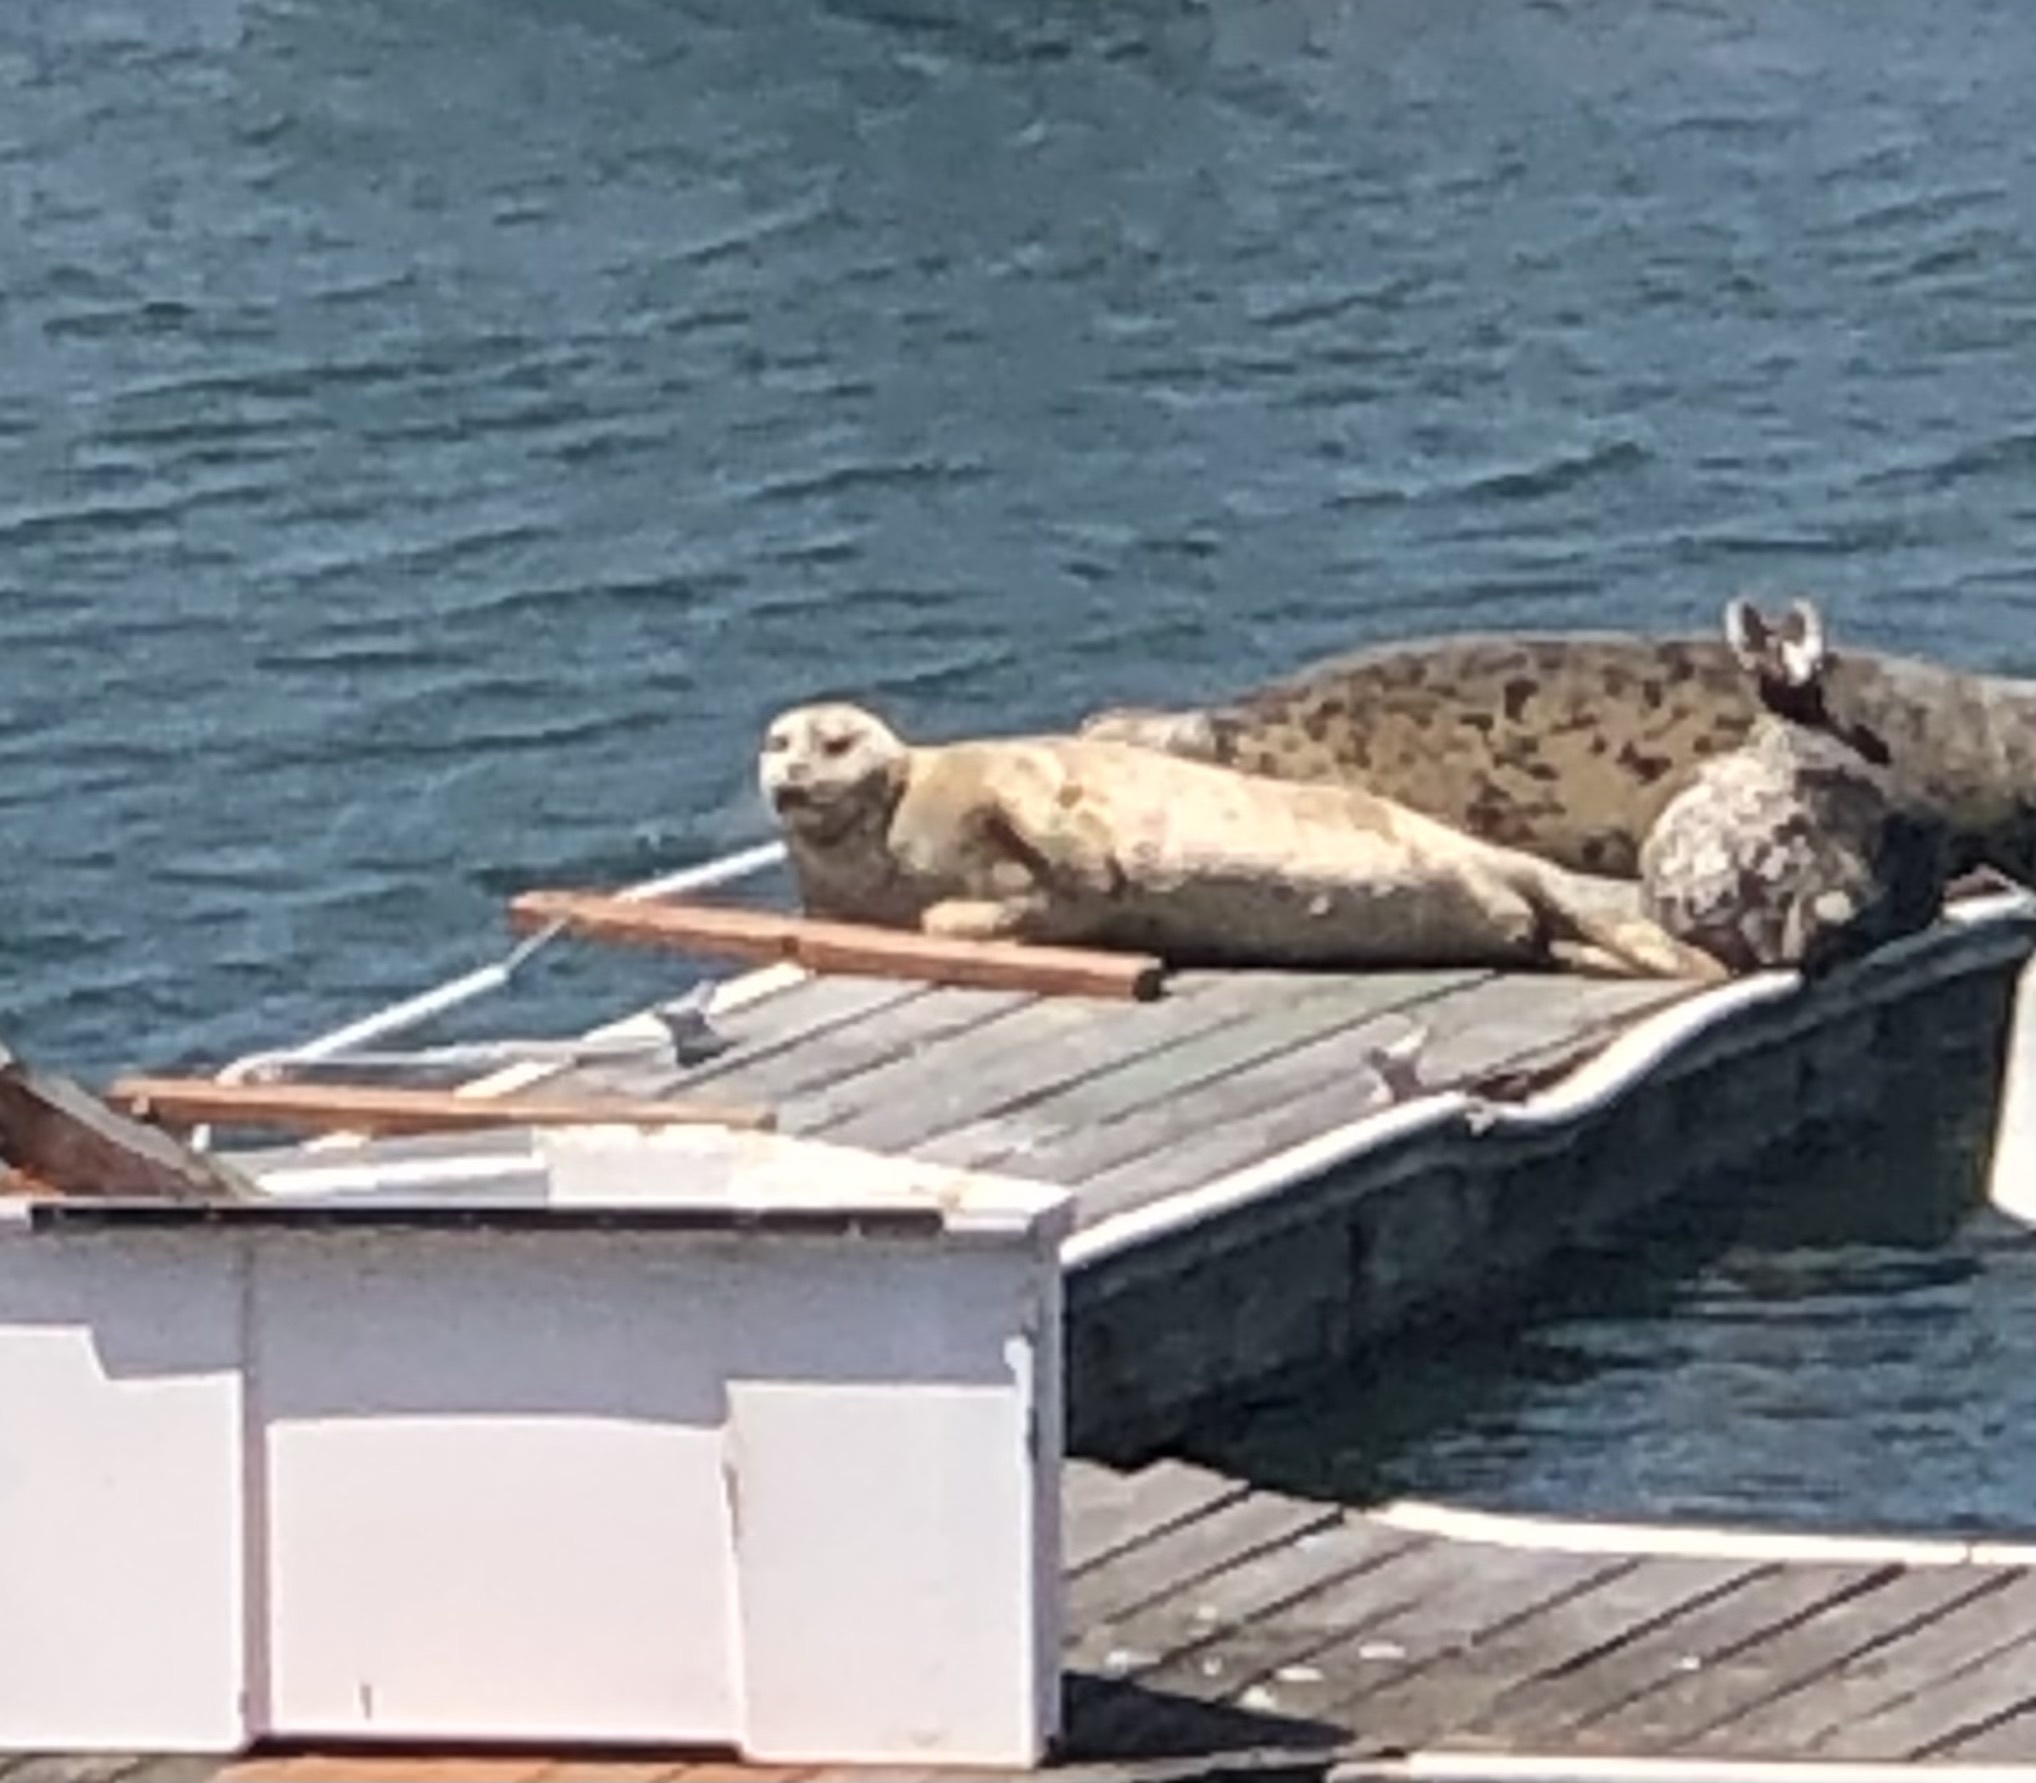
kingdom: Animalia
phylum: Chordata
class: Mammalia
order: Carnivora
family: Phocidae
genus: Phoca
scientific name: Phoca vitulina
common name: Harbor seal
